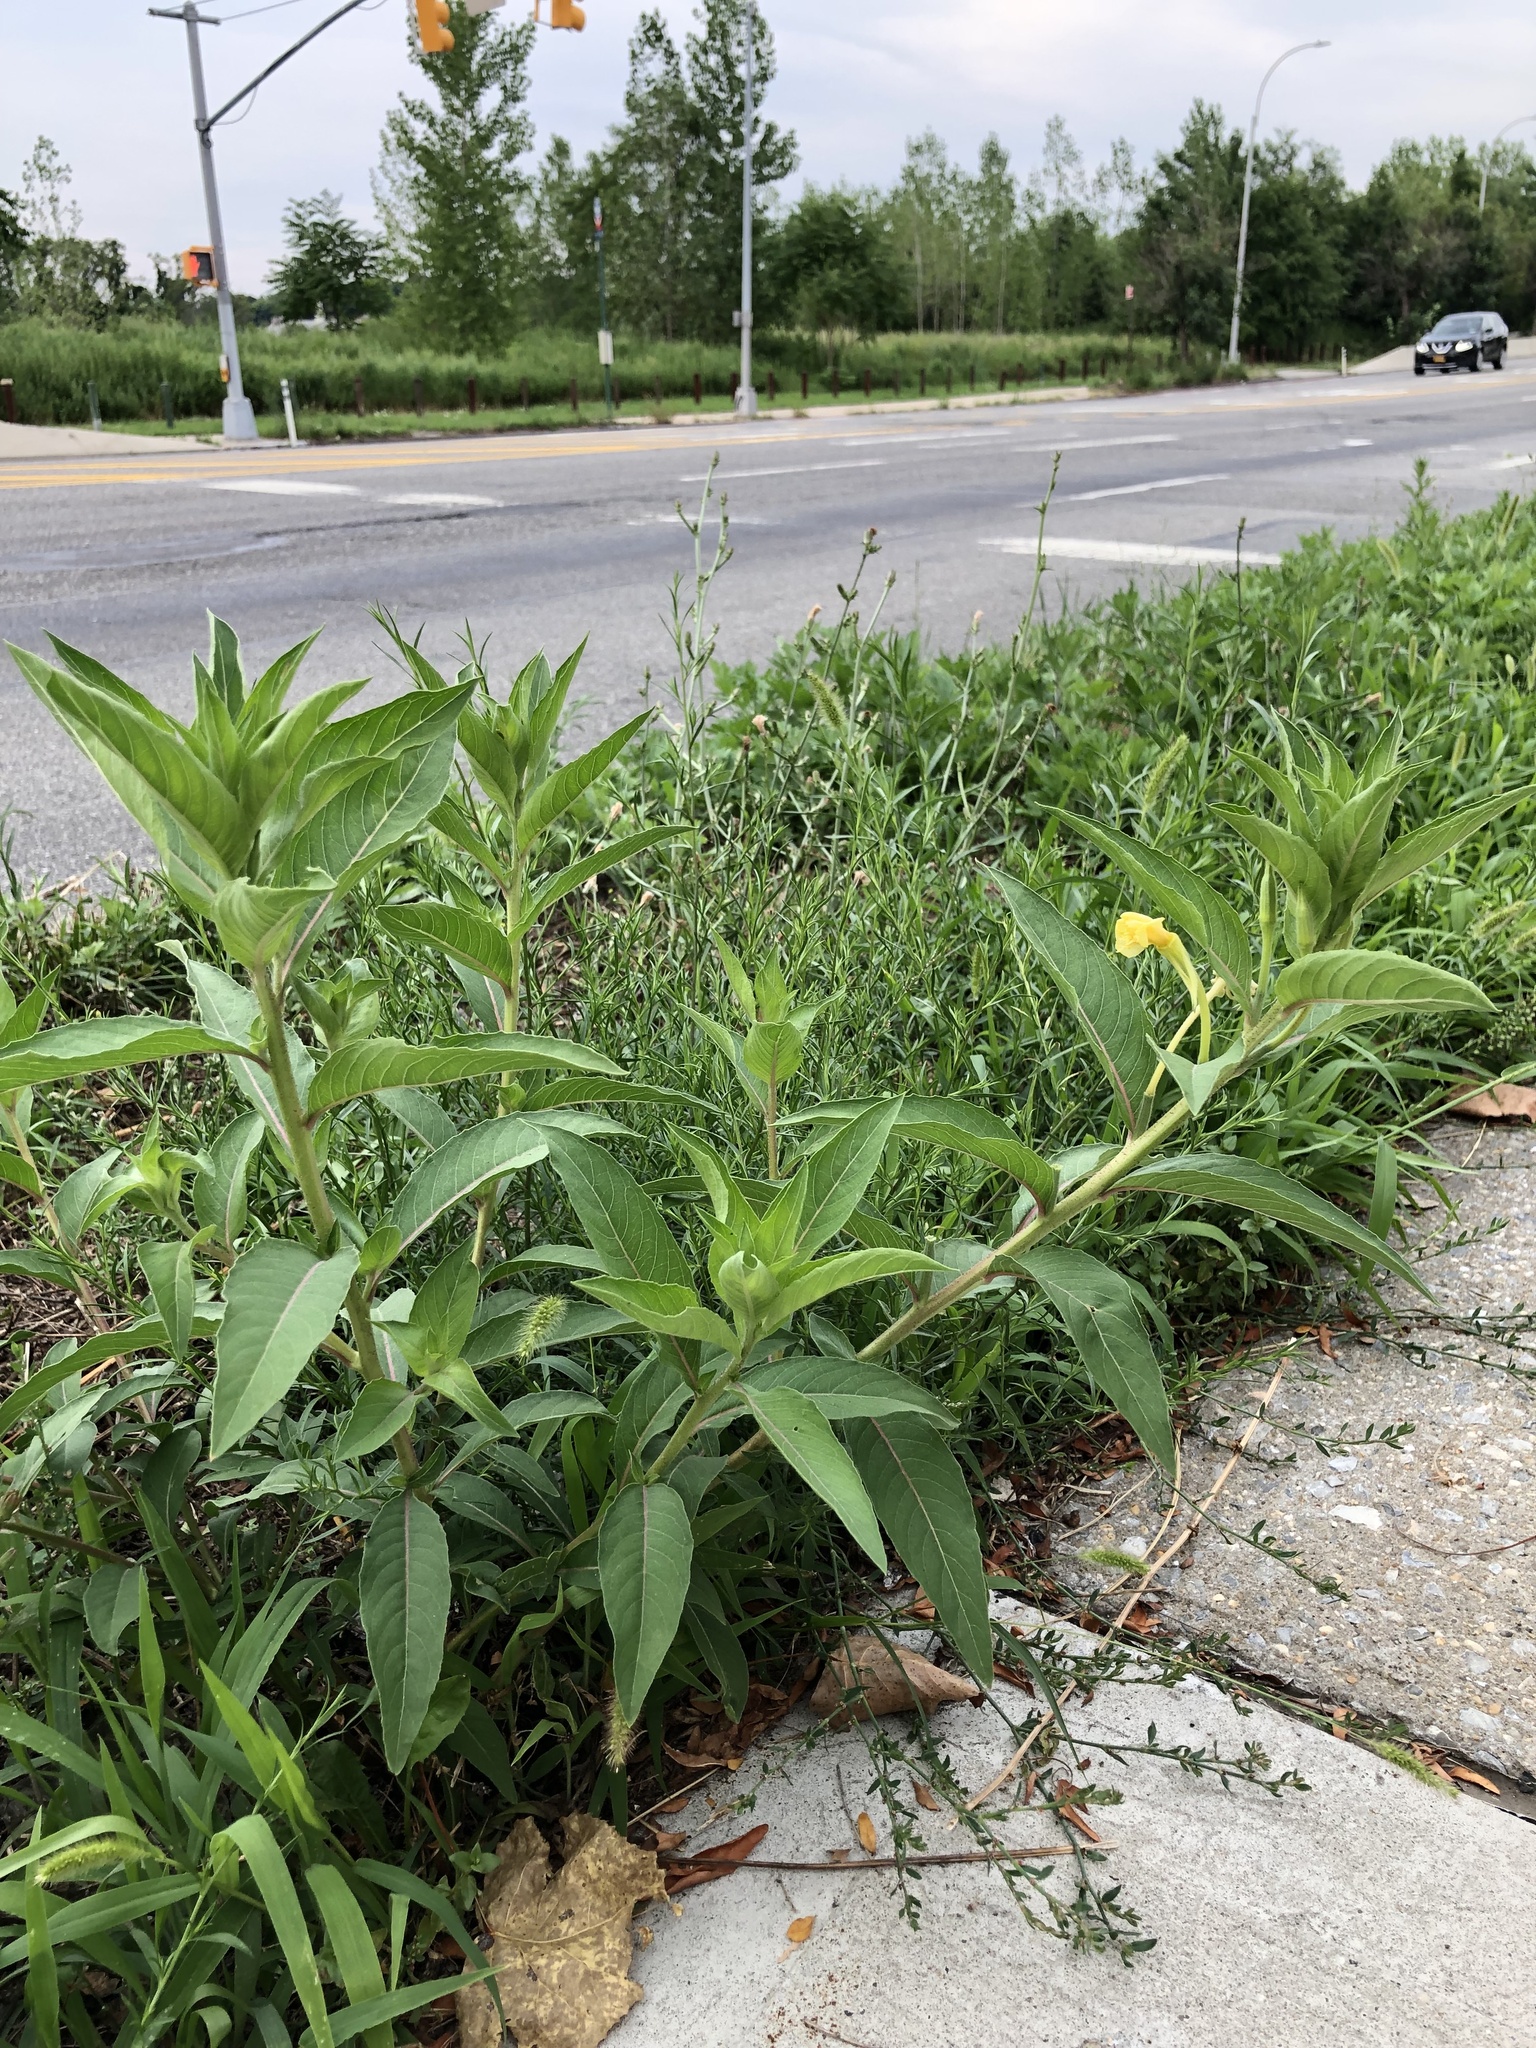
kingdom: Plantae
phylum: Tracheophyta
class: Magnoliopsida
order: Myrtales
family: Onagraceae
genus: Oenothera
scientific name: Oenothera biennis
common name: Common evening-primrose
